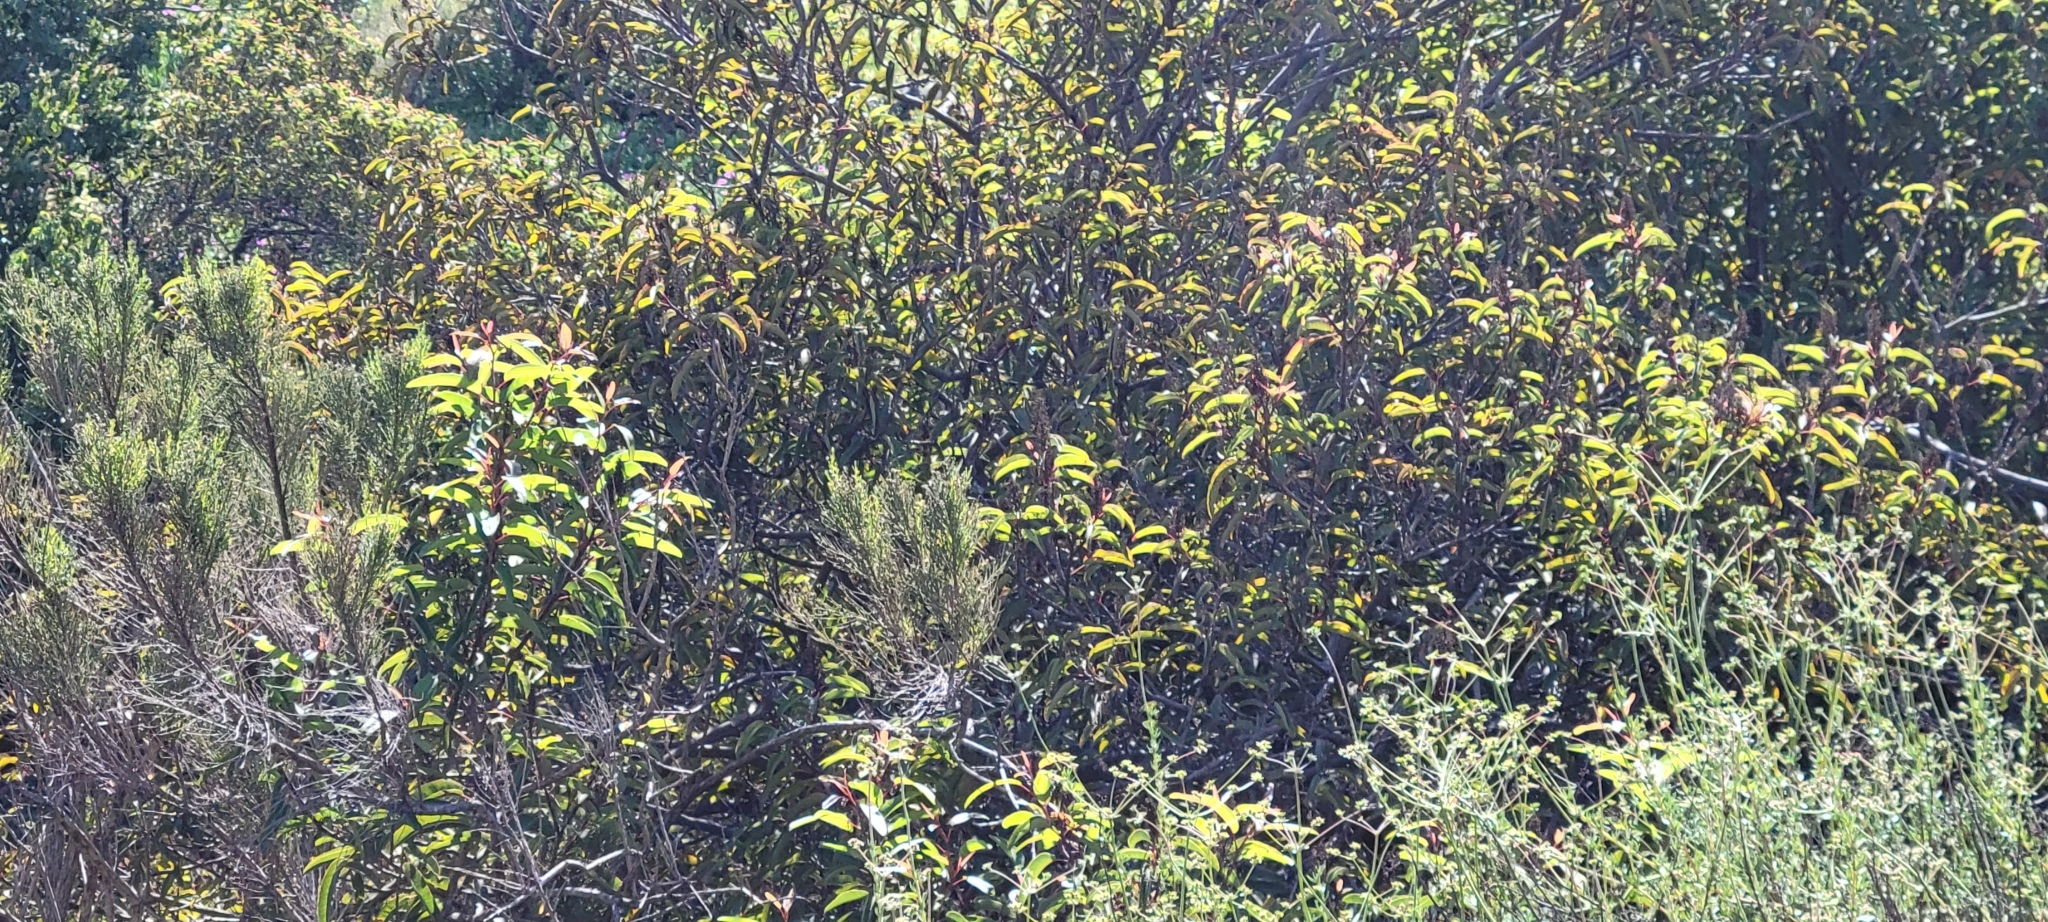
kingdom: Plantae
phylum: Tracheophyta
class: Magnoliopsida
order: Sapindales
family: Anacardiaceae
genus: Malosma
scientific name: Malosma laurina
